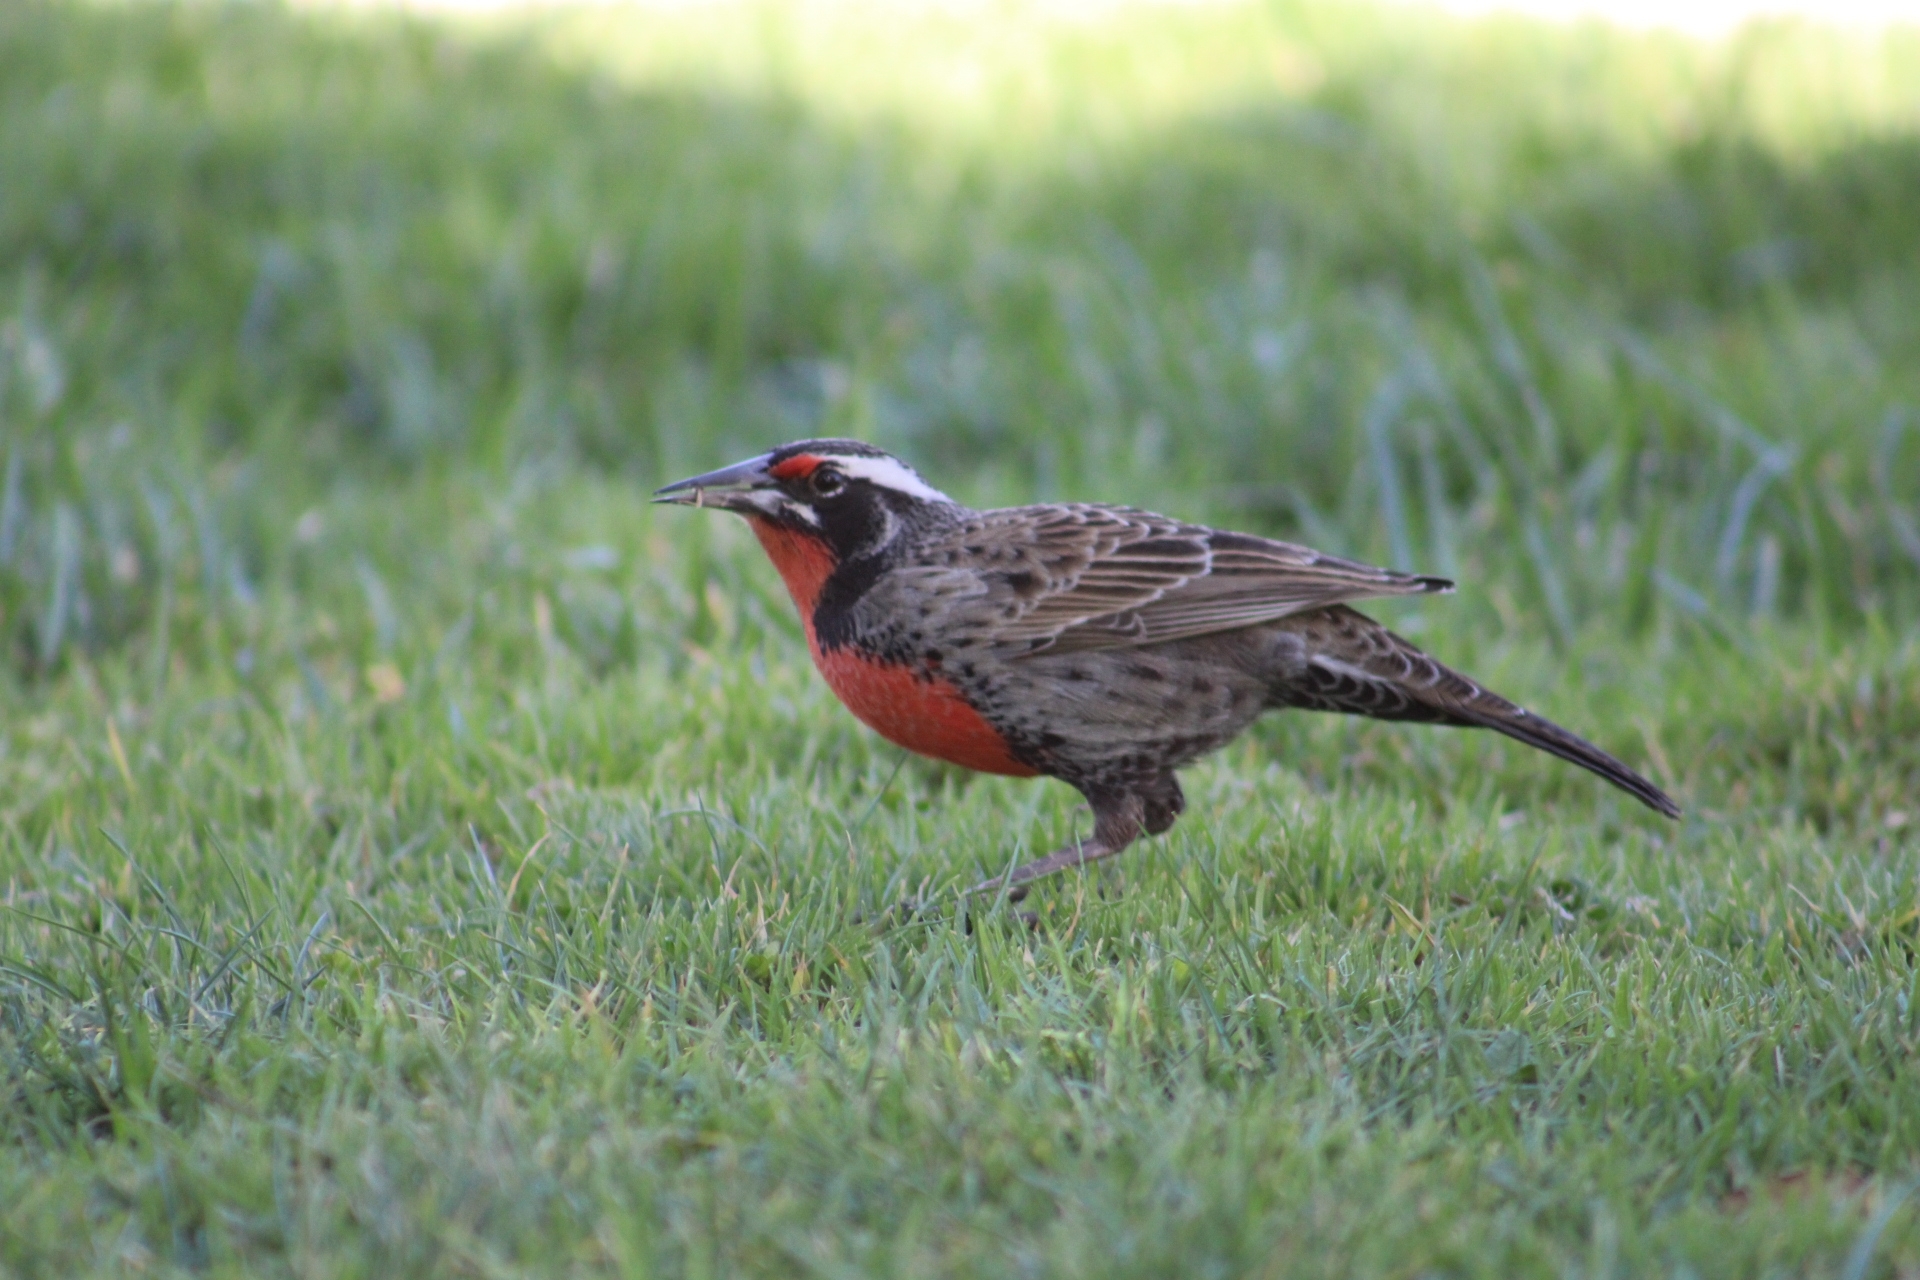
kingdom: Animalia
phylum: Chordata
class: Aves
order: Passeriformes
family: Icteridae
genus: Sturnella
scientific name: Sturnella loyca
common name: Long-tailed meadowlark
